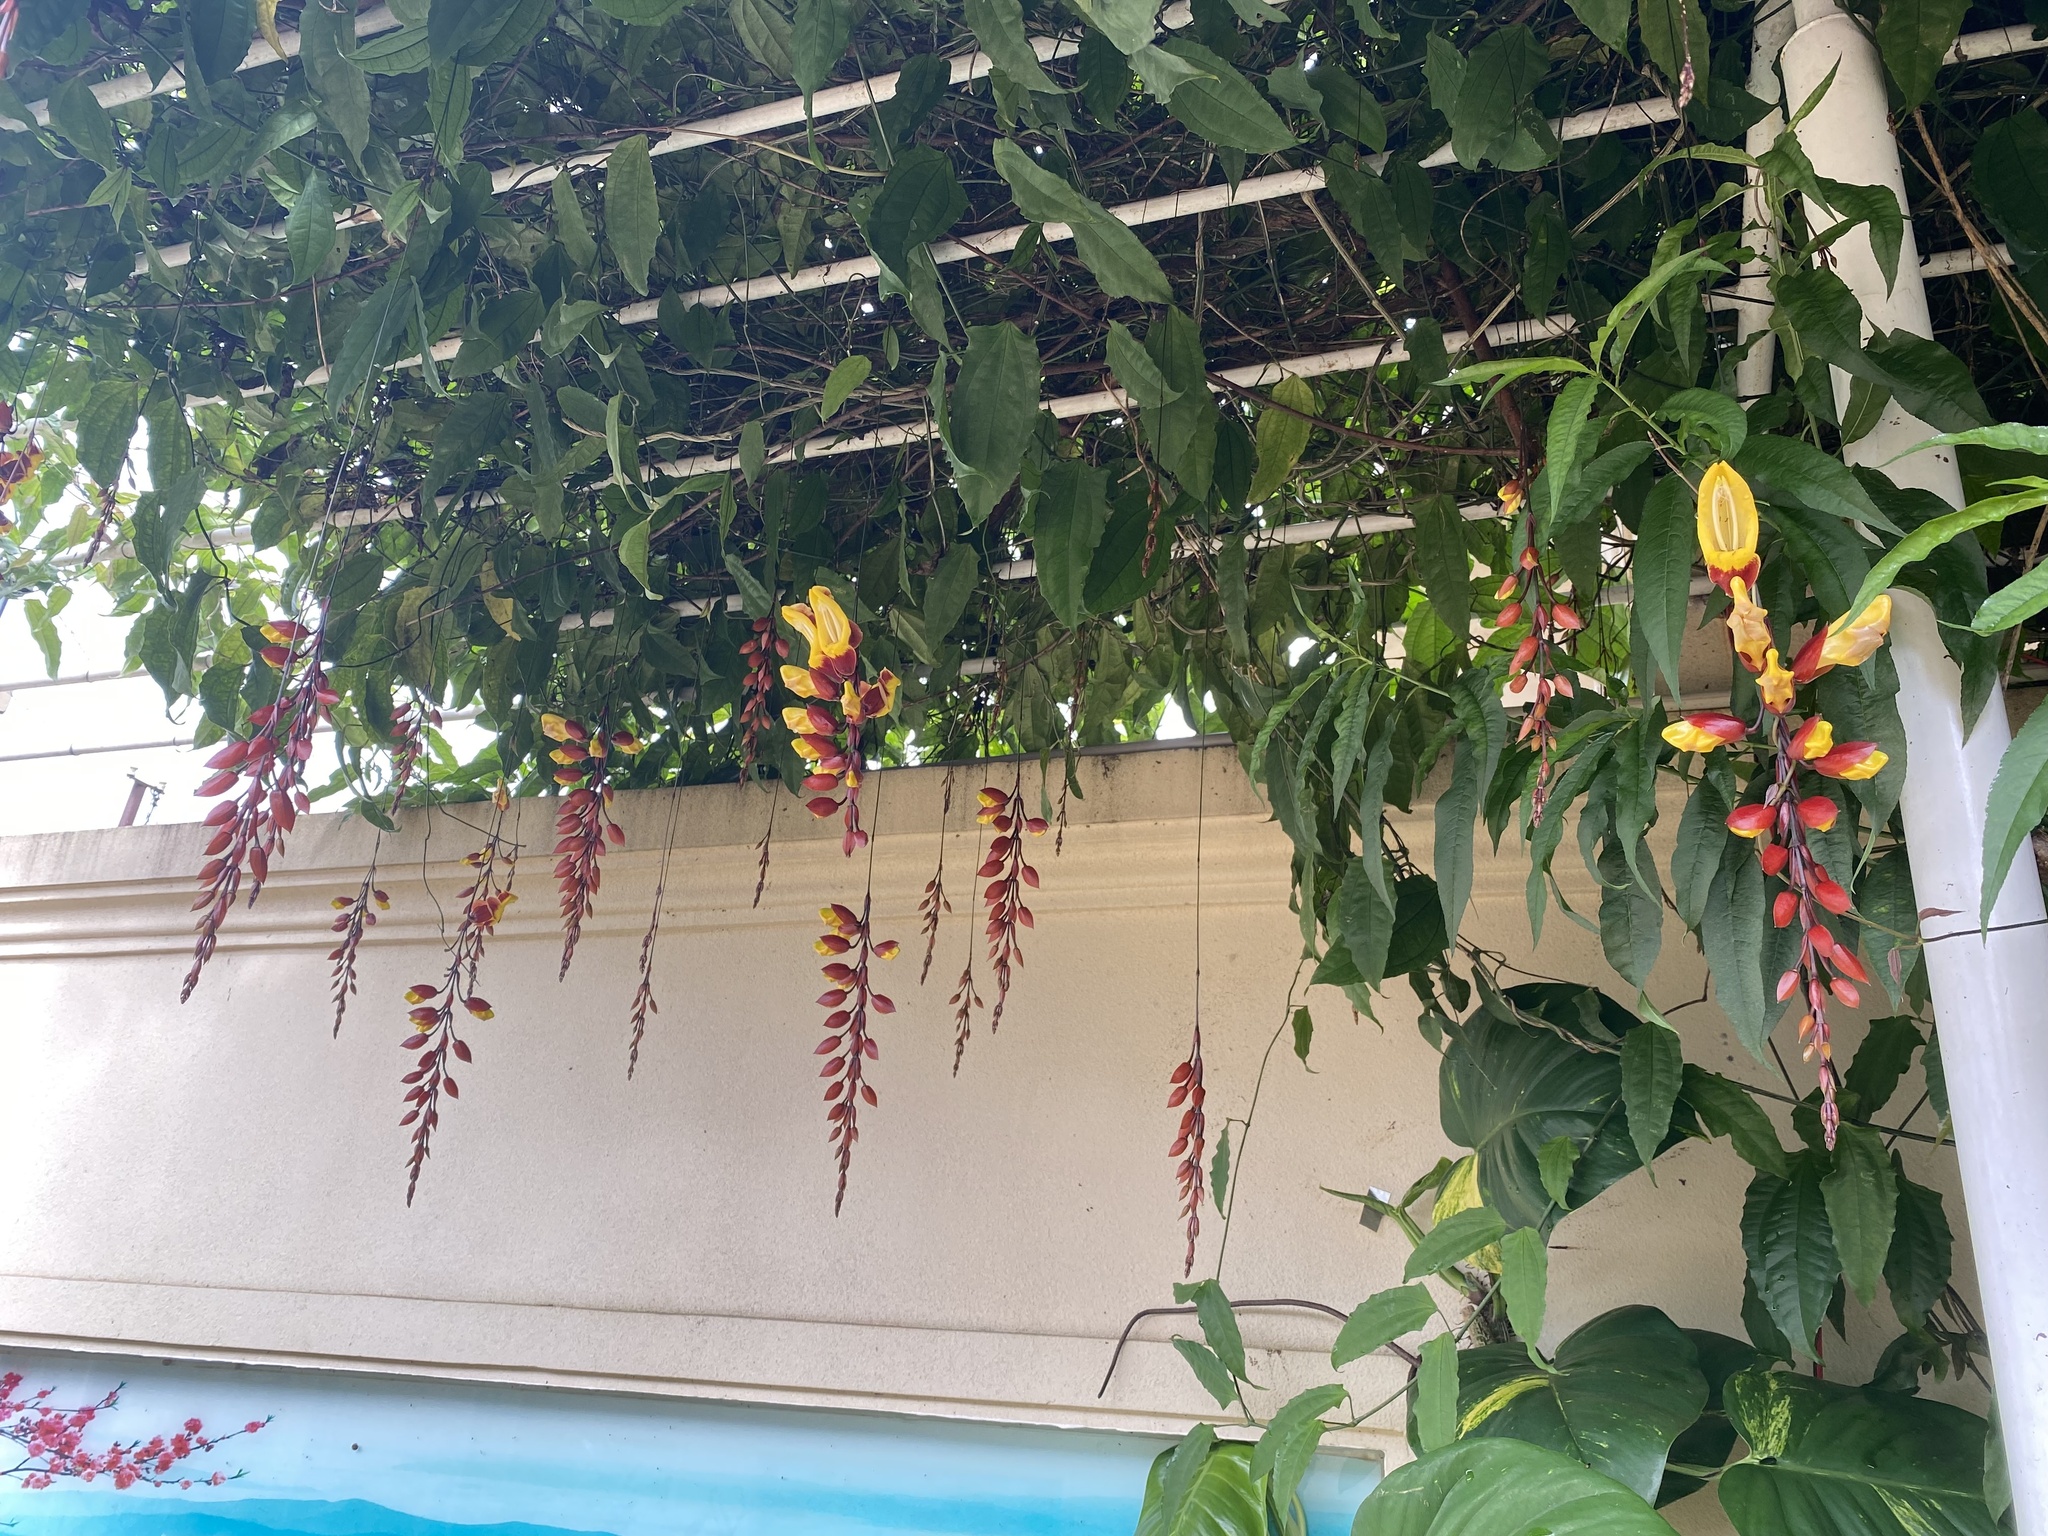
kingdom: Plantae
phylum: Tracheophyta
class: Magnoliopsida
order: Lamiales
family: Acanthaceae
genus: Thunbergia
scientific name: Thunbergia mysorensis
